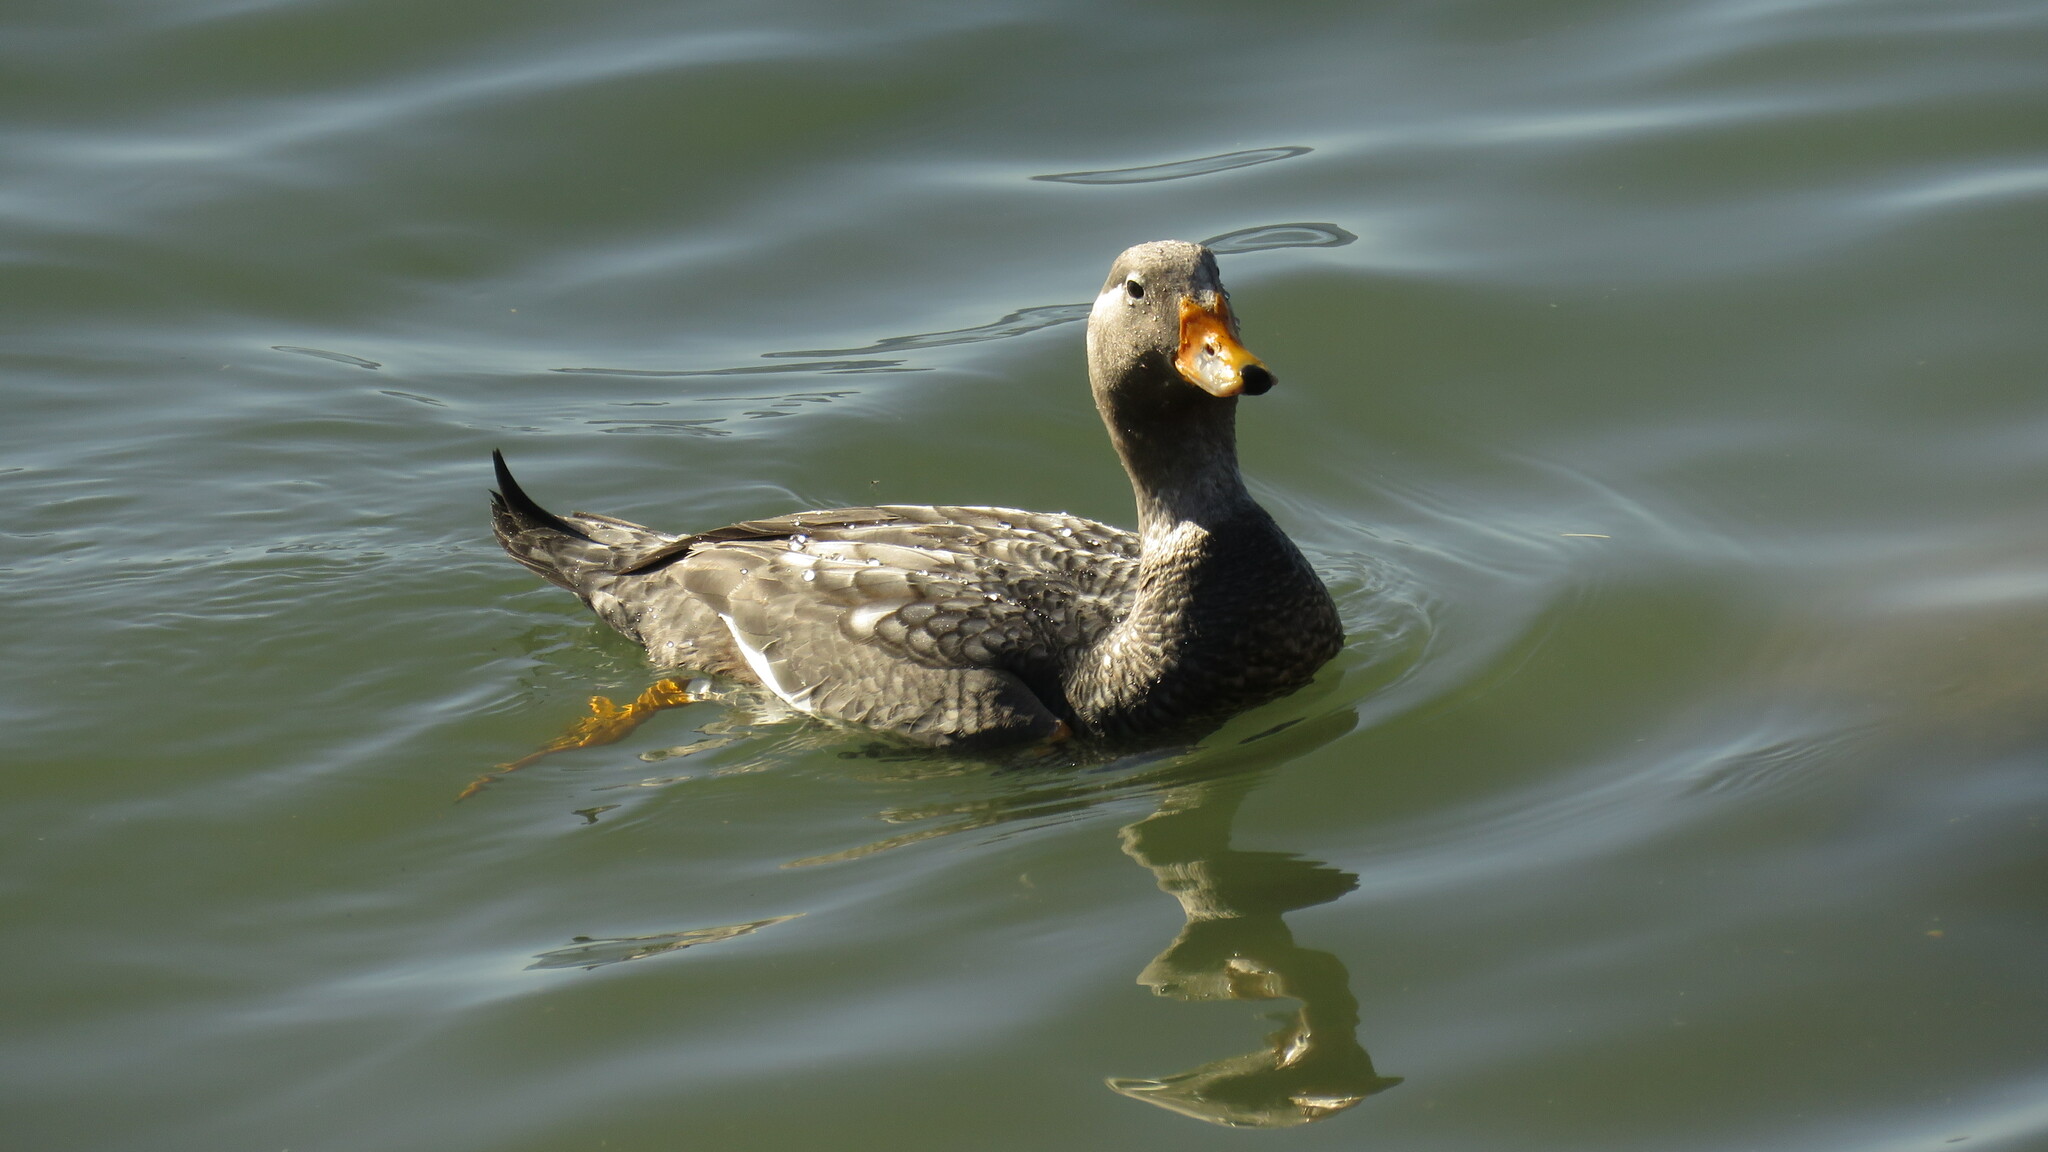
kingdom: Animalia
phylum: Chordata
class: Aves
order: Anseriformes
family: Anatidae
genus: Tachyeres
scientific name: Tachyeres patachonicus
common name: Flying steamer duck
